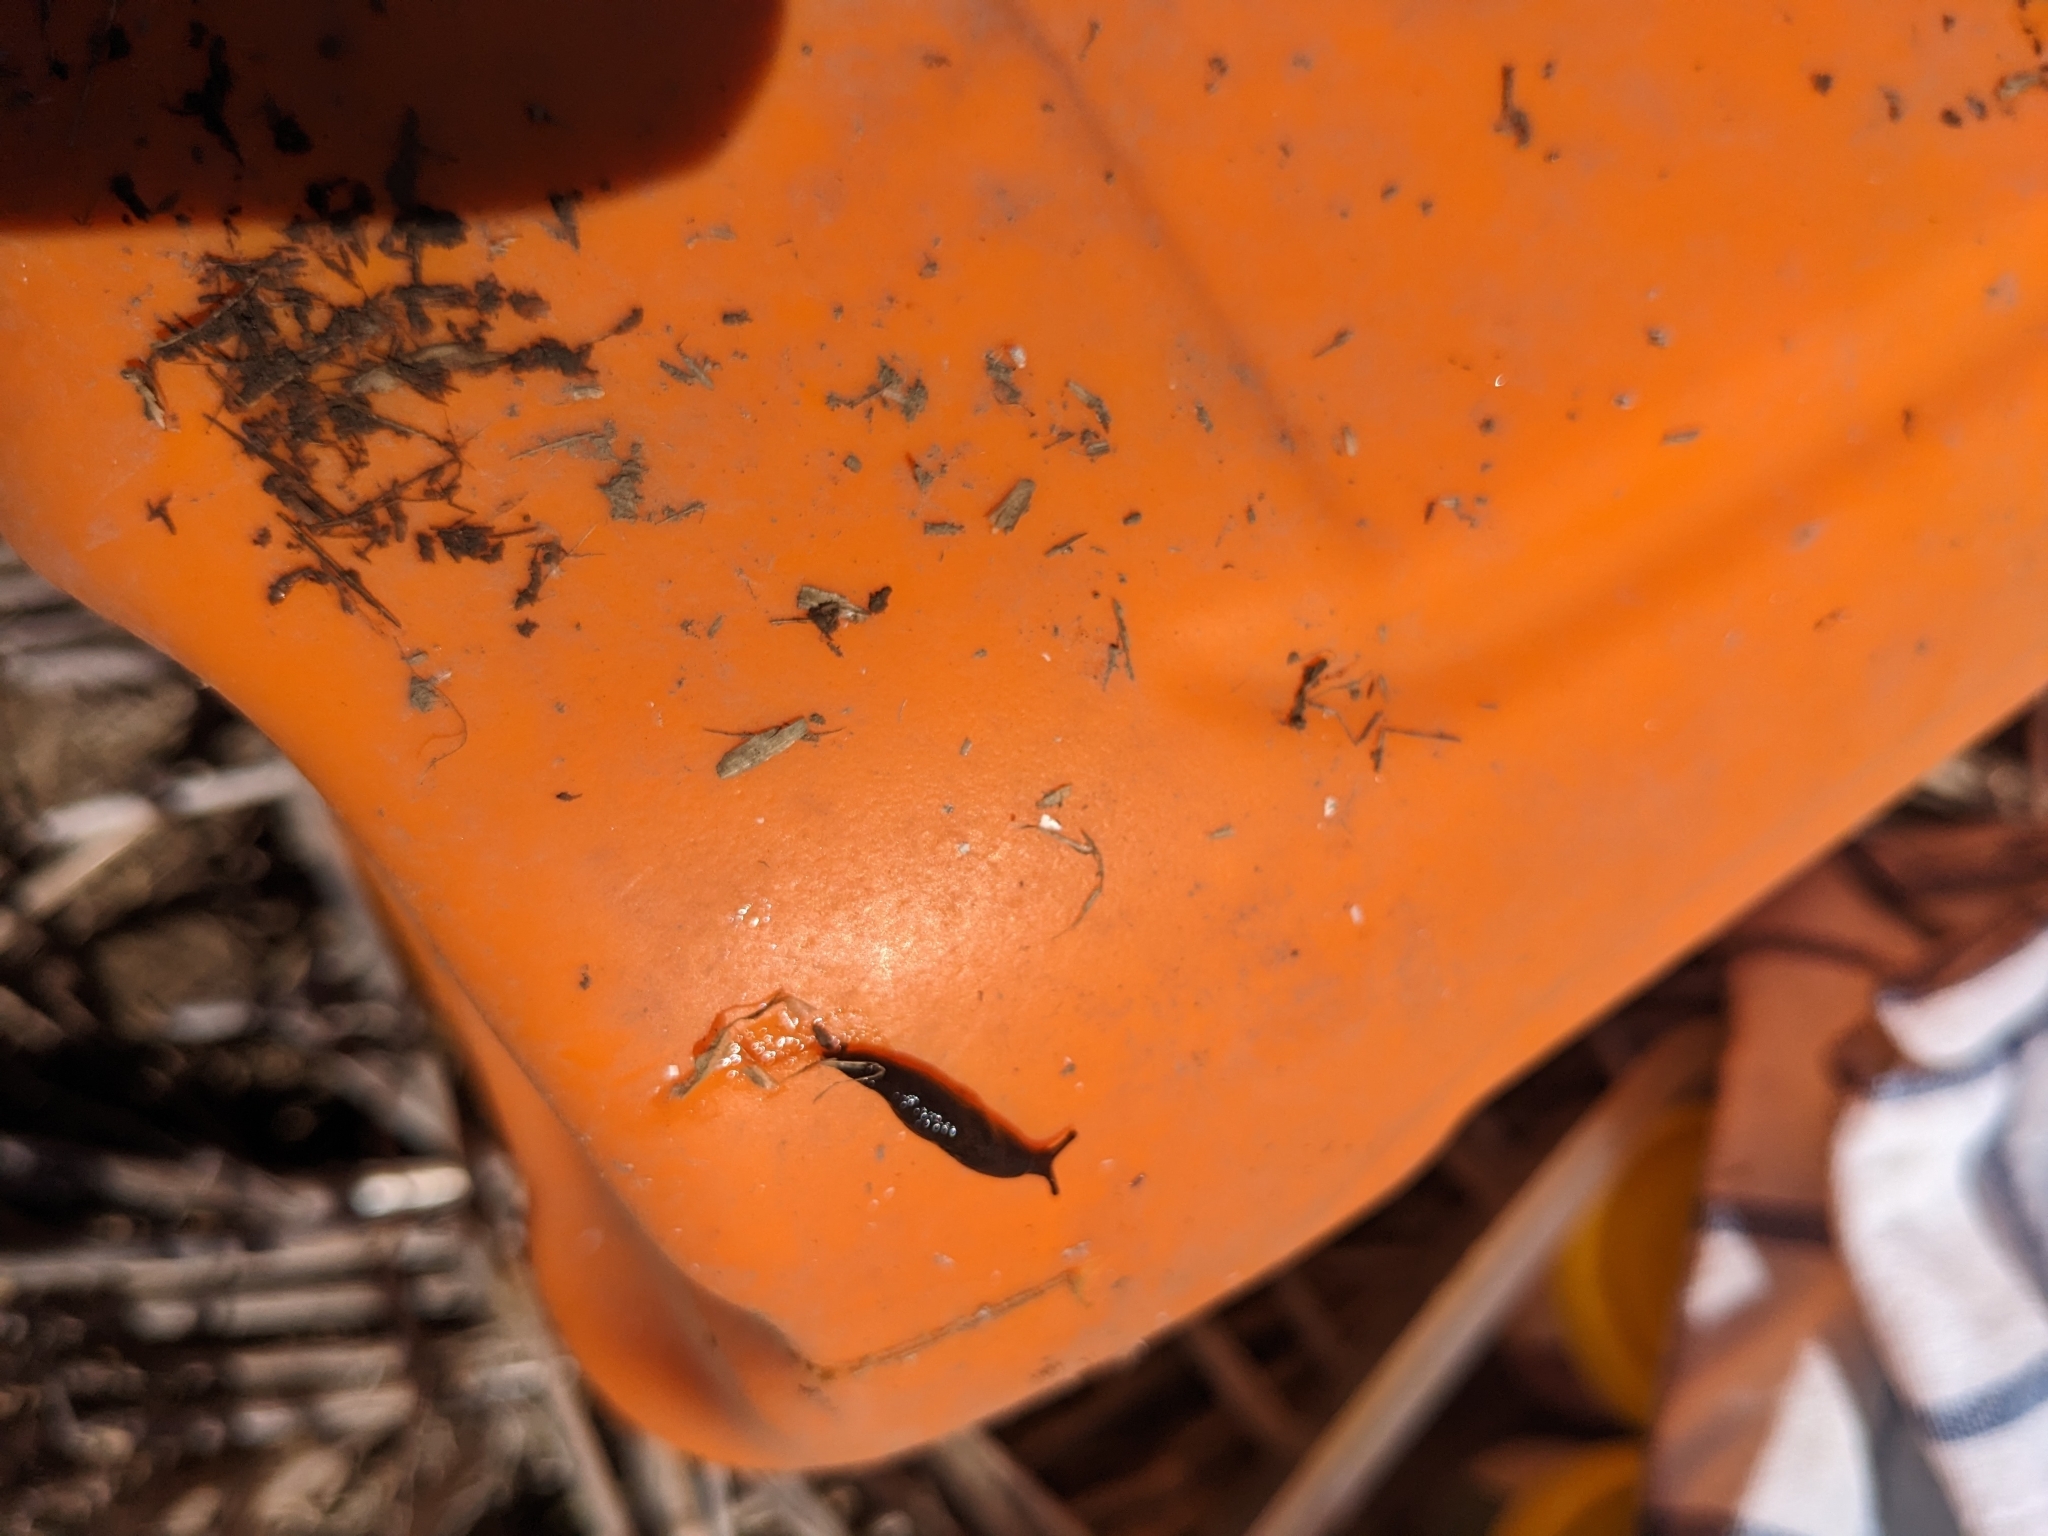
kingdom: Animalia
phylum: Mollusca
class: Gastropoda
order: Stylommatophora
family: Agriolimacidae
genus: Deroceras
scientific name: Deroceras laeve
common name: Marsh slug
